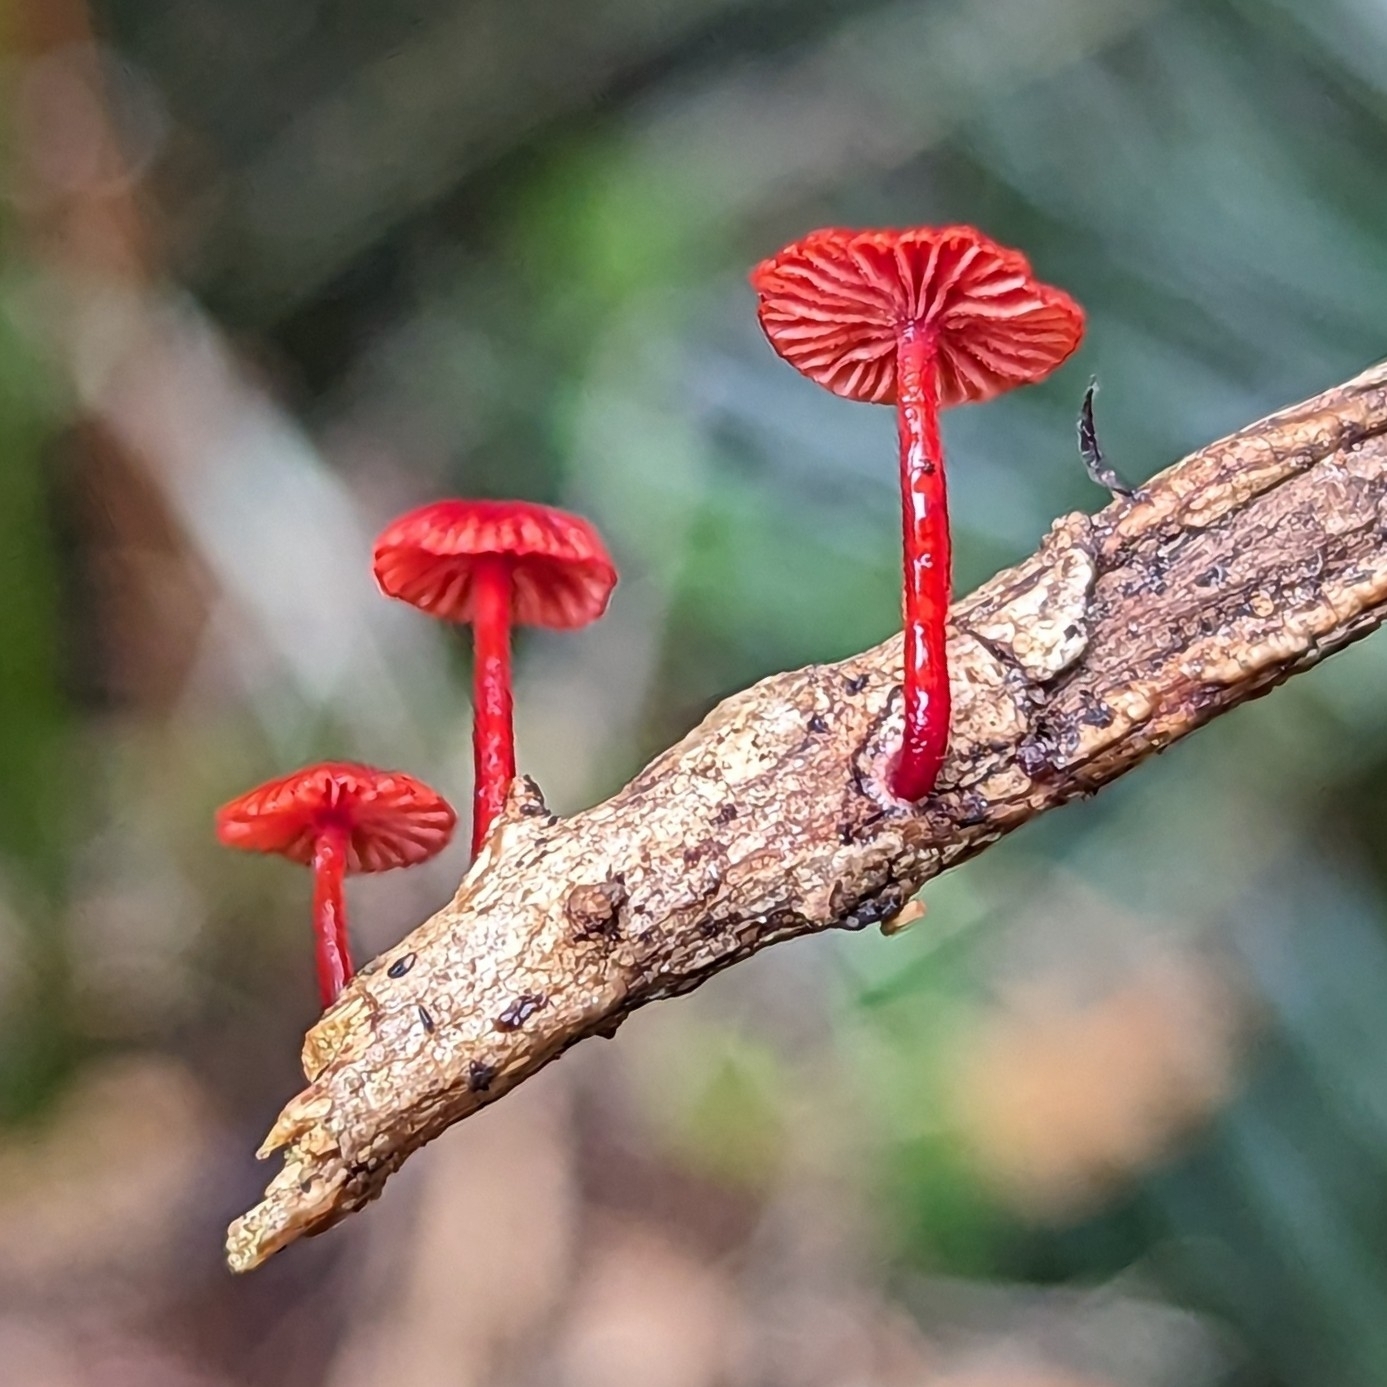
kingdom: Fungi
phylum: Basidiomycota
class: Agaricomycetes
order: Agaricales
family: Mycenaceae
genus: Cruentomycena
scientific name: Cruentomycena viscidocruenta
